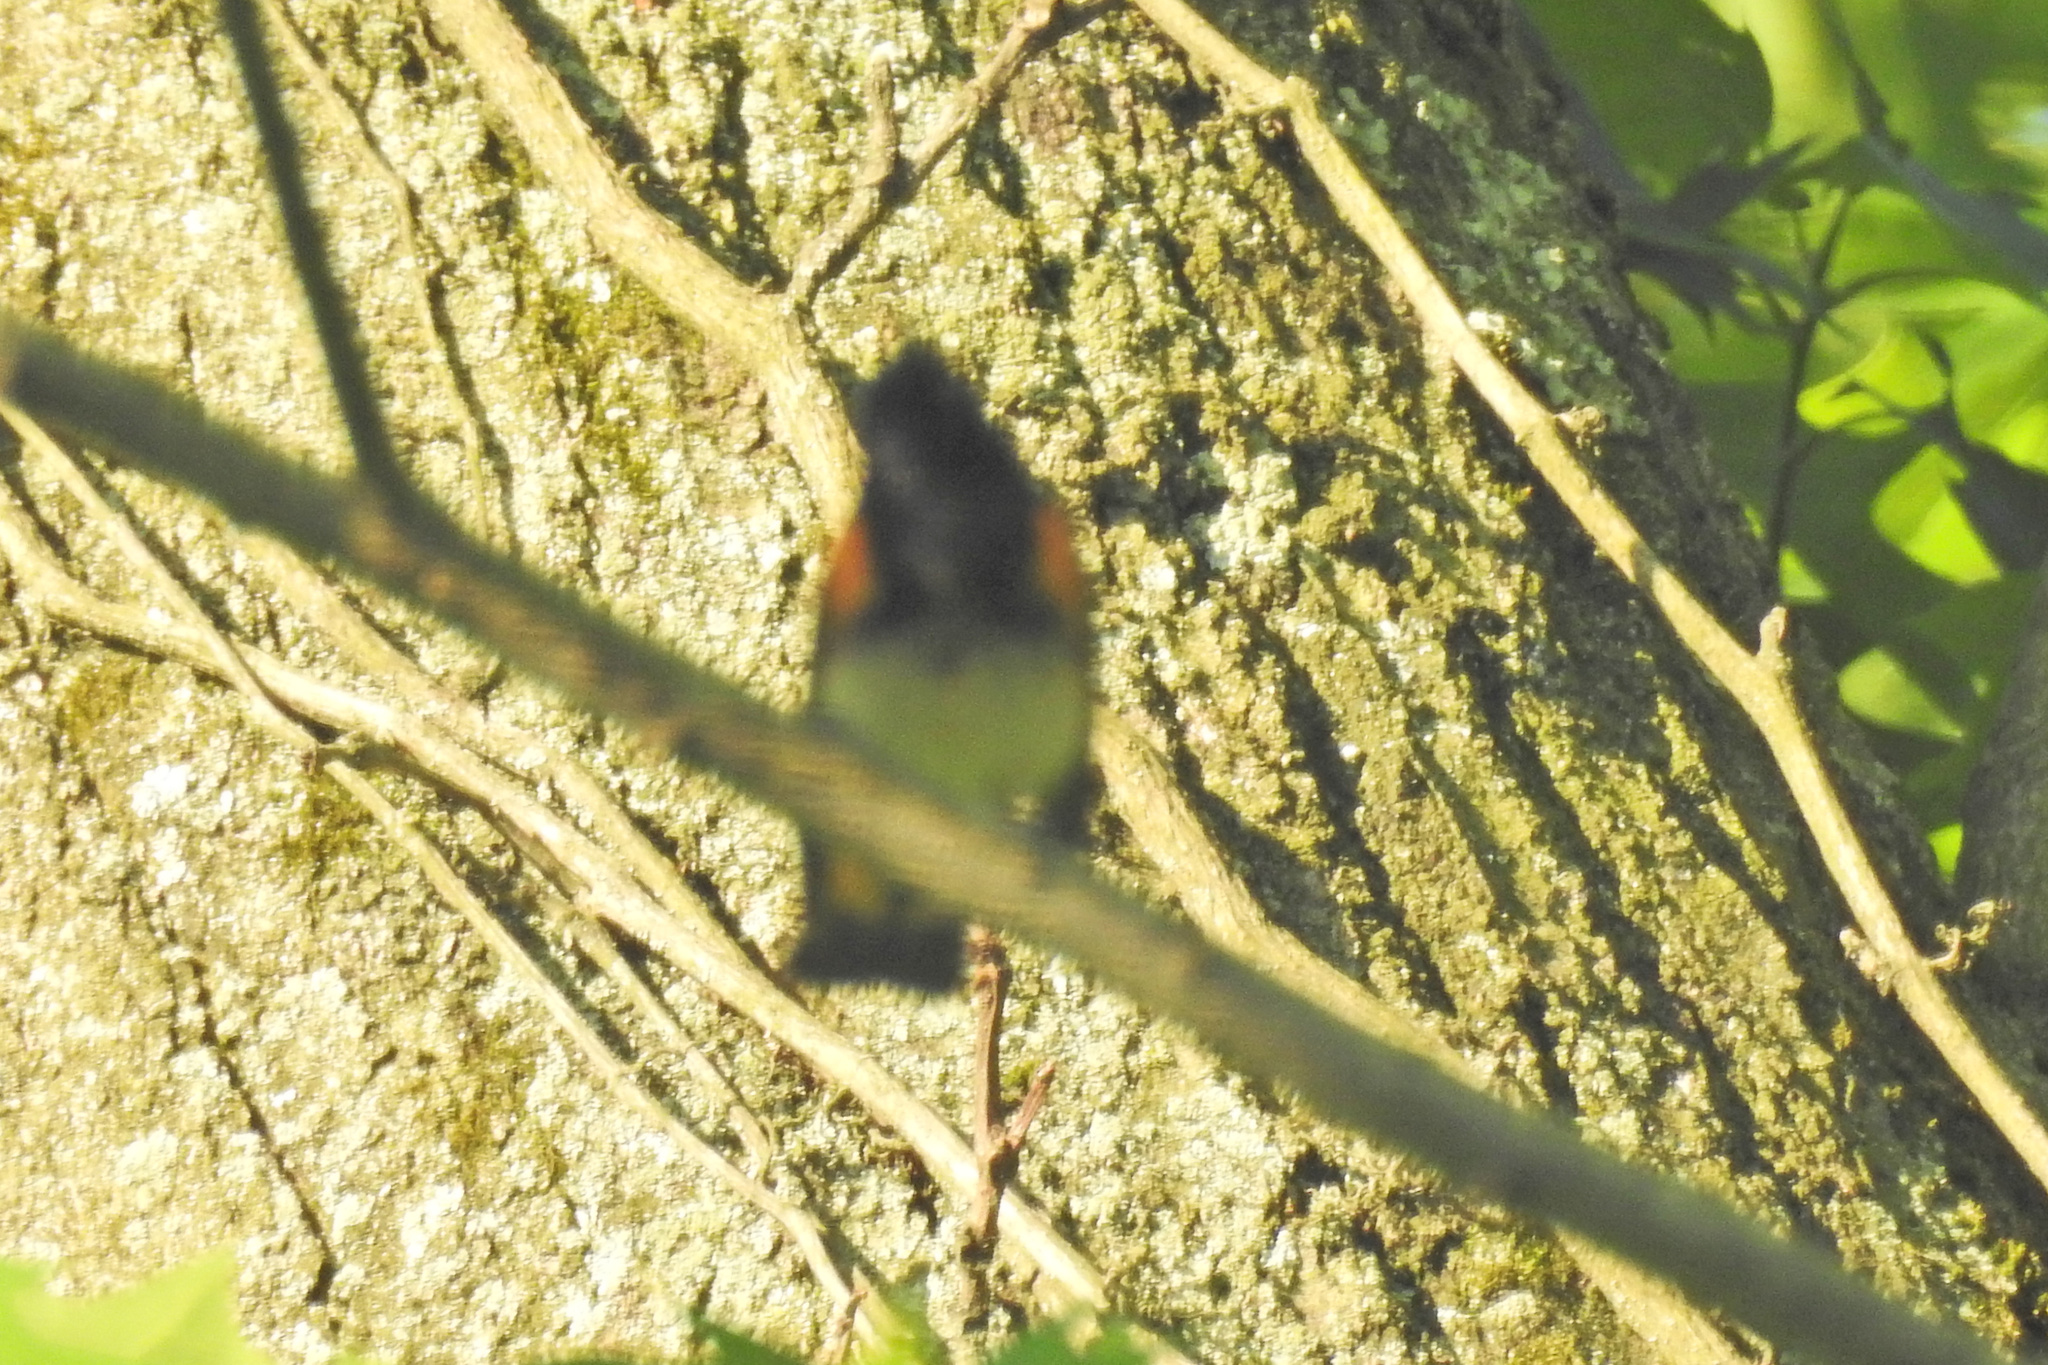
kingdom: Animalia
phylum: Chordata
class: Aves
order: Passeriformes
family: Parulidae
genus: Setophaga
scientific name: Setophaga ruticilla
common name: American redstart
